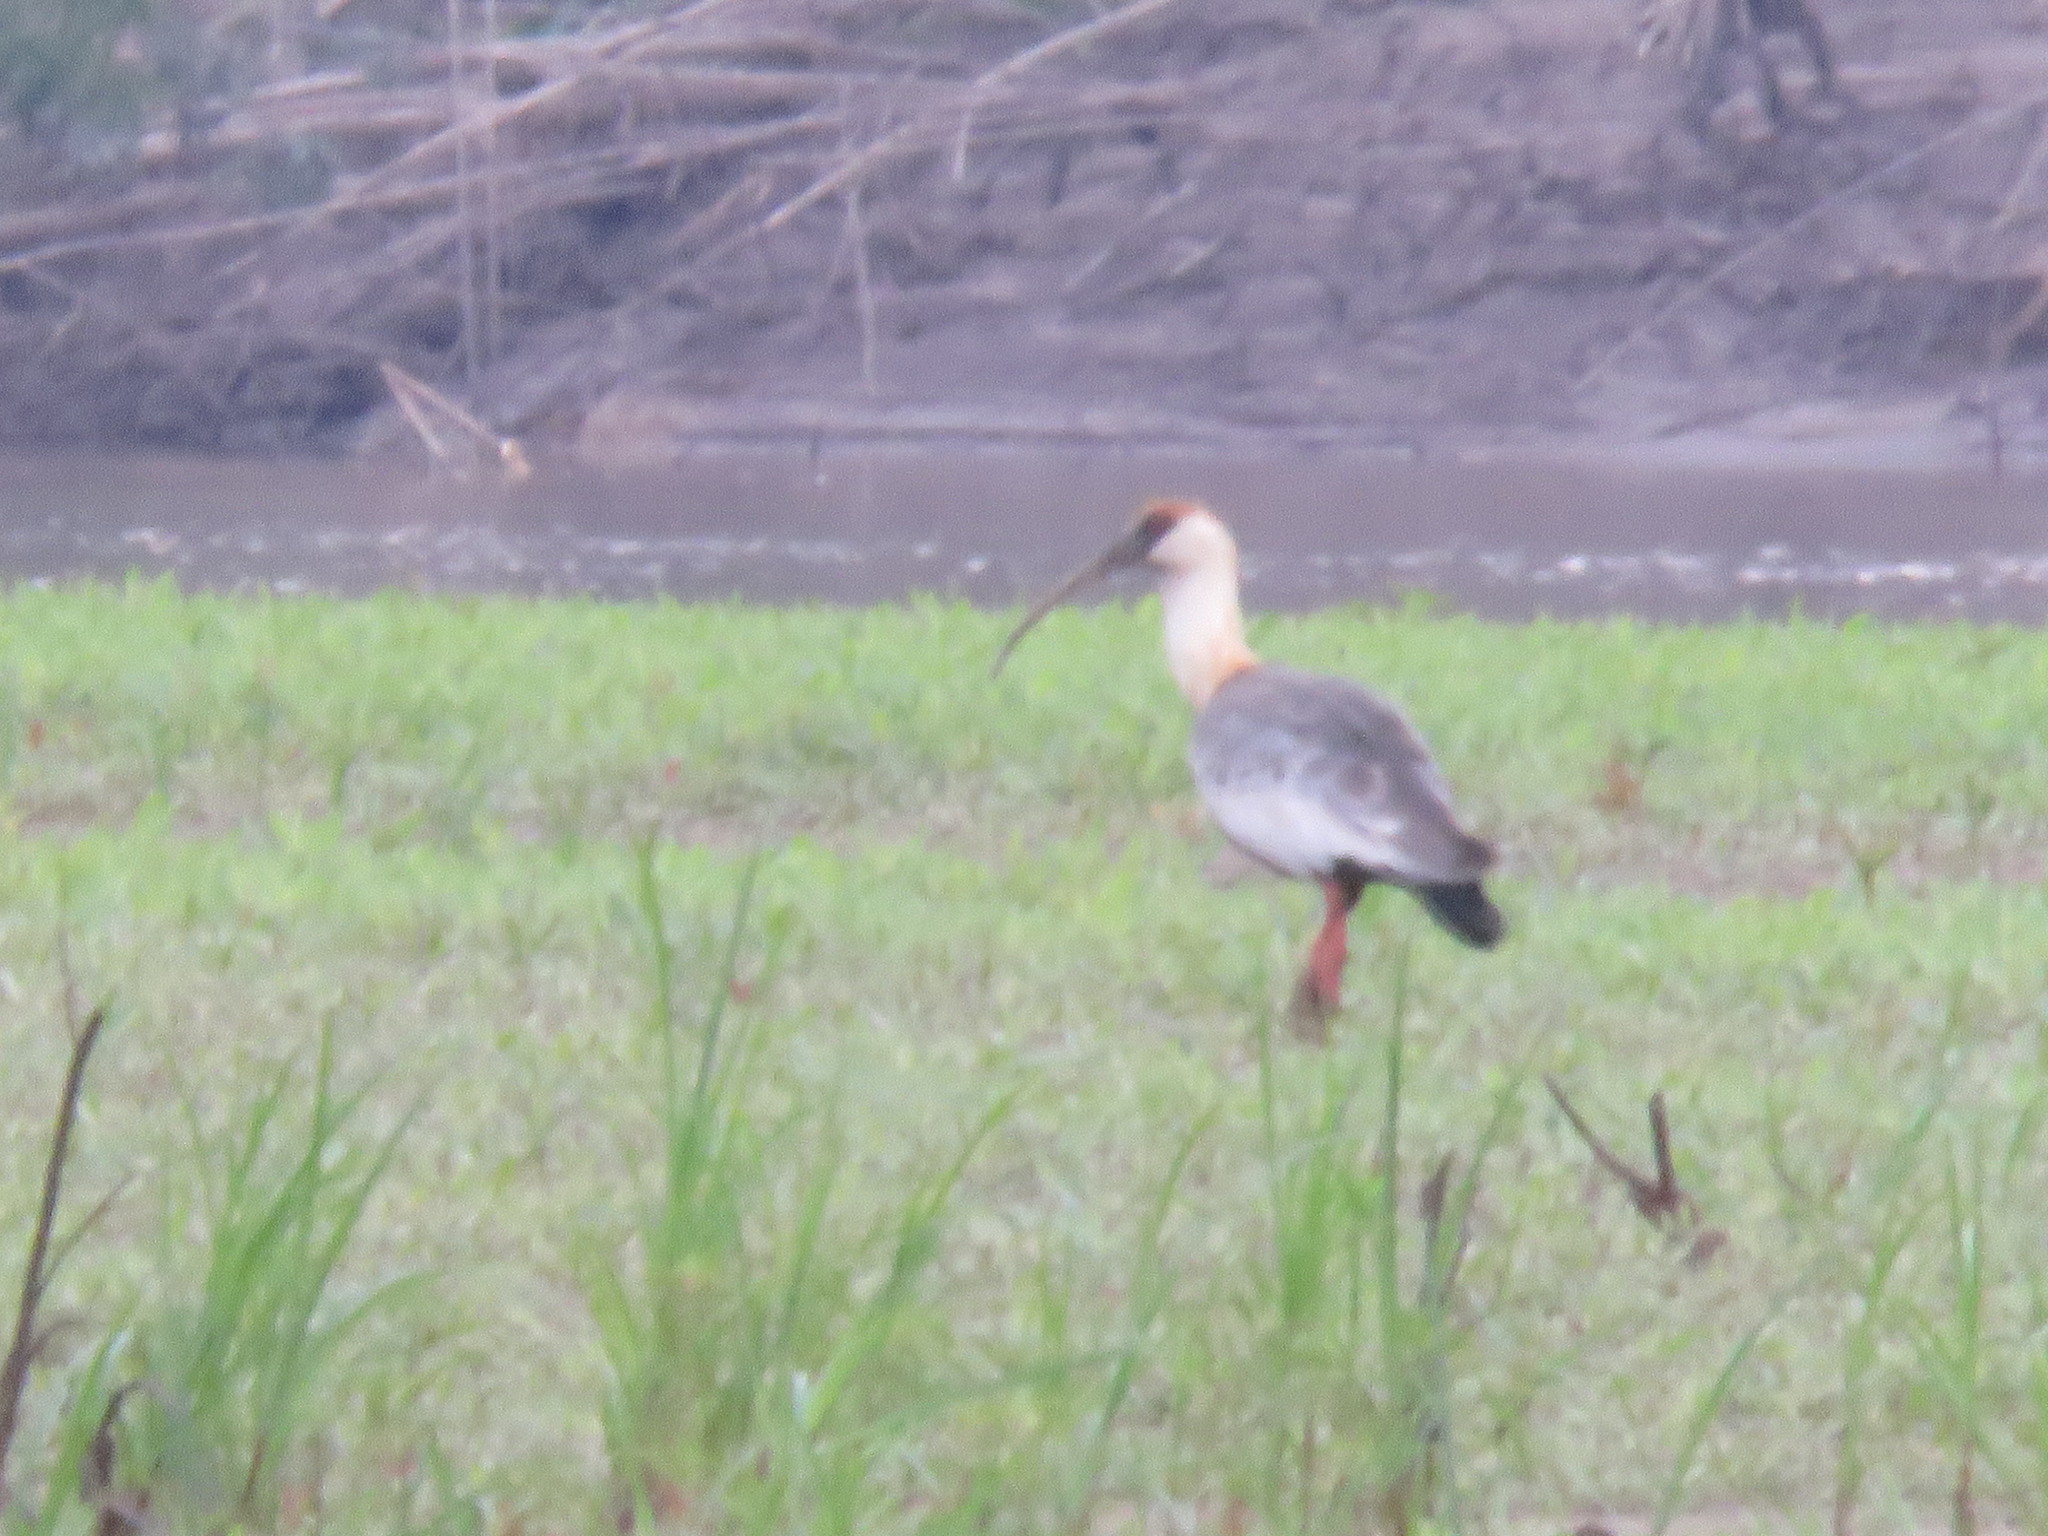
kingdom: Animalia
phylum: Chordata
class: Aves
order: Pelecaniformes
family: Threskiornithidae
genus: Theristicus
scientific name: Theristicus caudatus
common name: Buff-necked ibis
